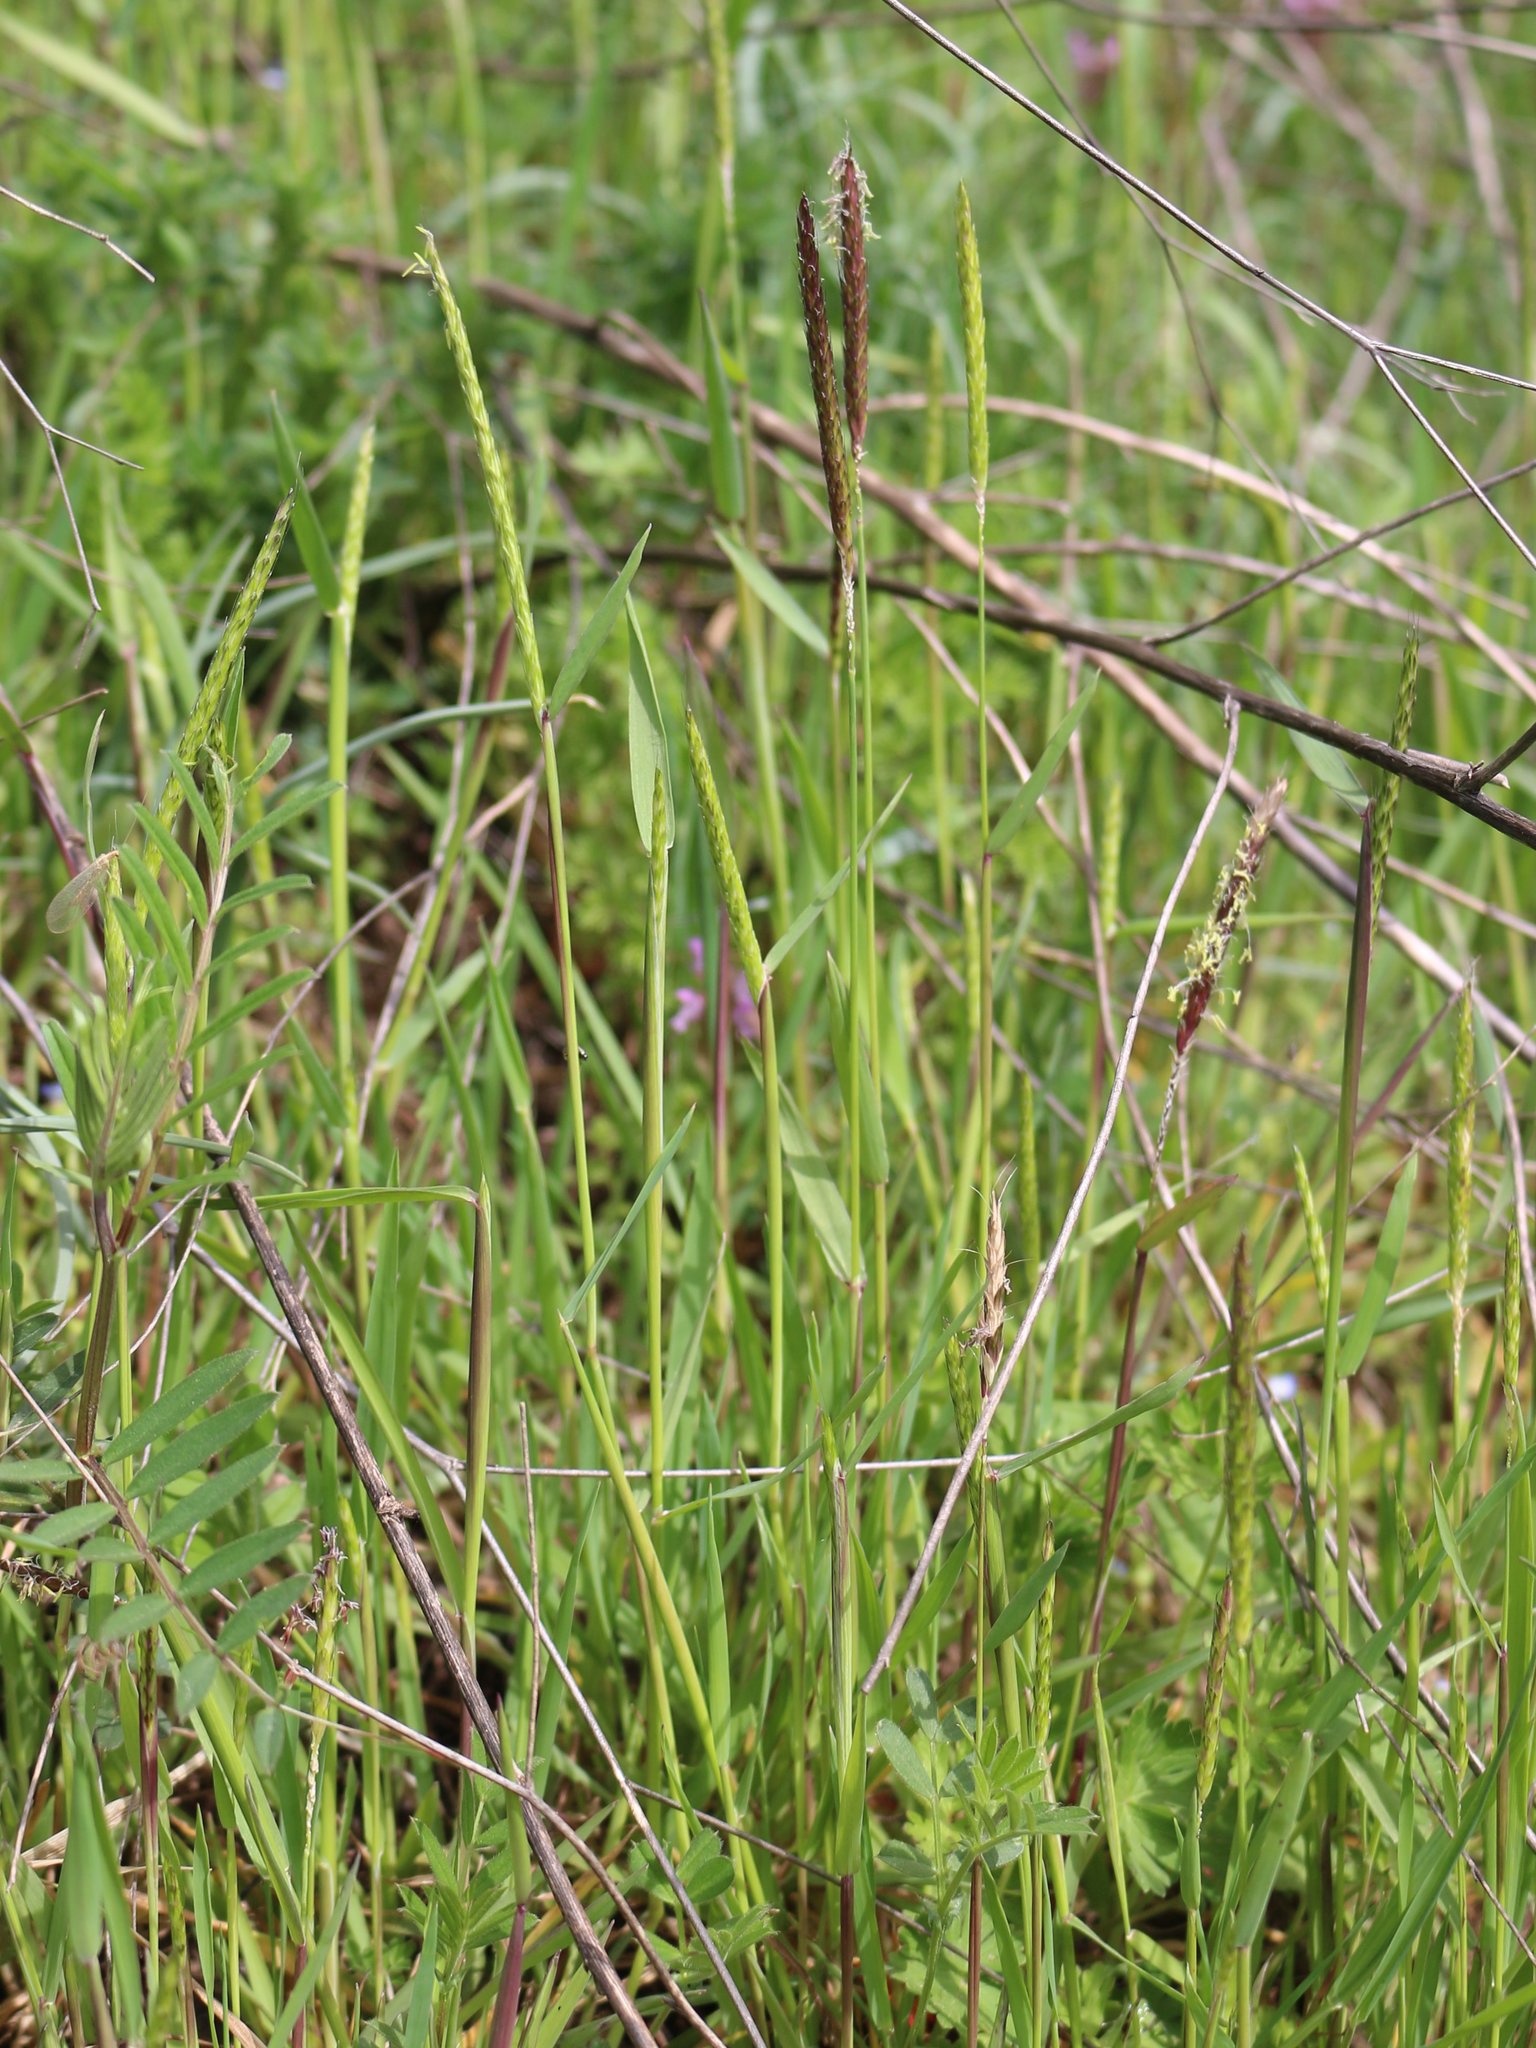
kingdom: Plantae
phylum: Tracheophyta
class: Liliopsida
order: Poales
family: Poaceae
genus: Alopecurus
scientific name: Alopecurus myosuroides
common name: Black-grass
